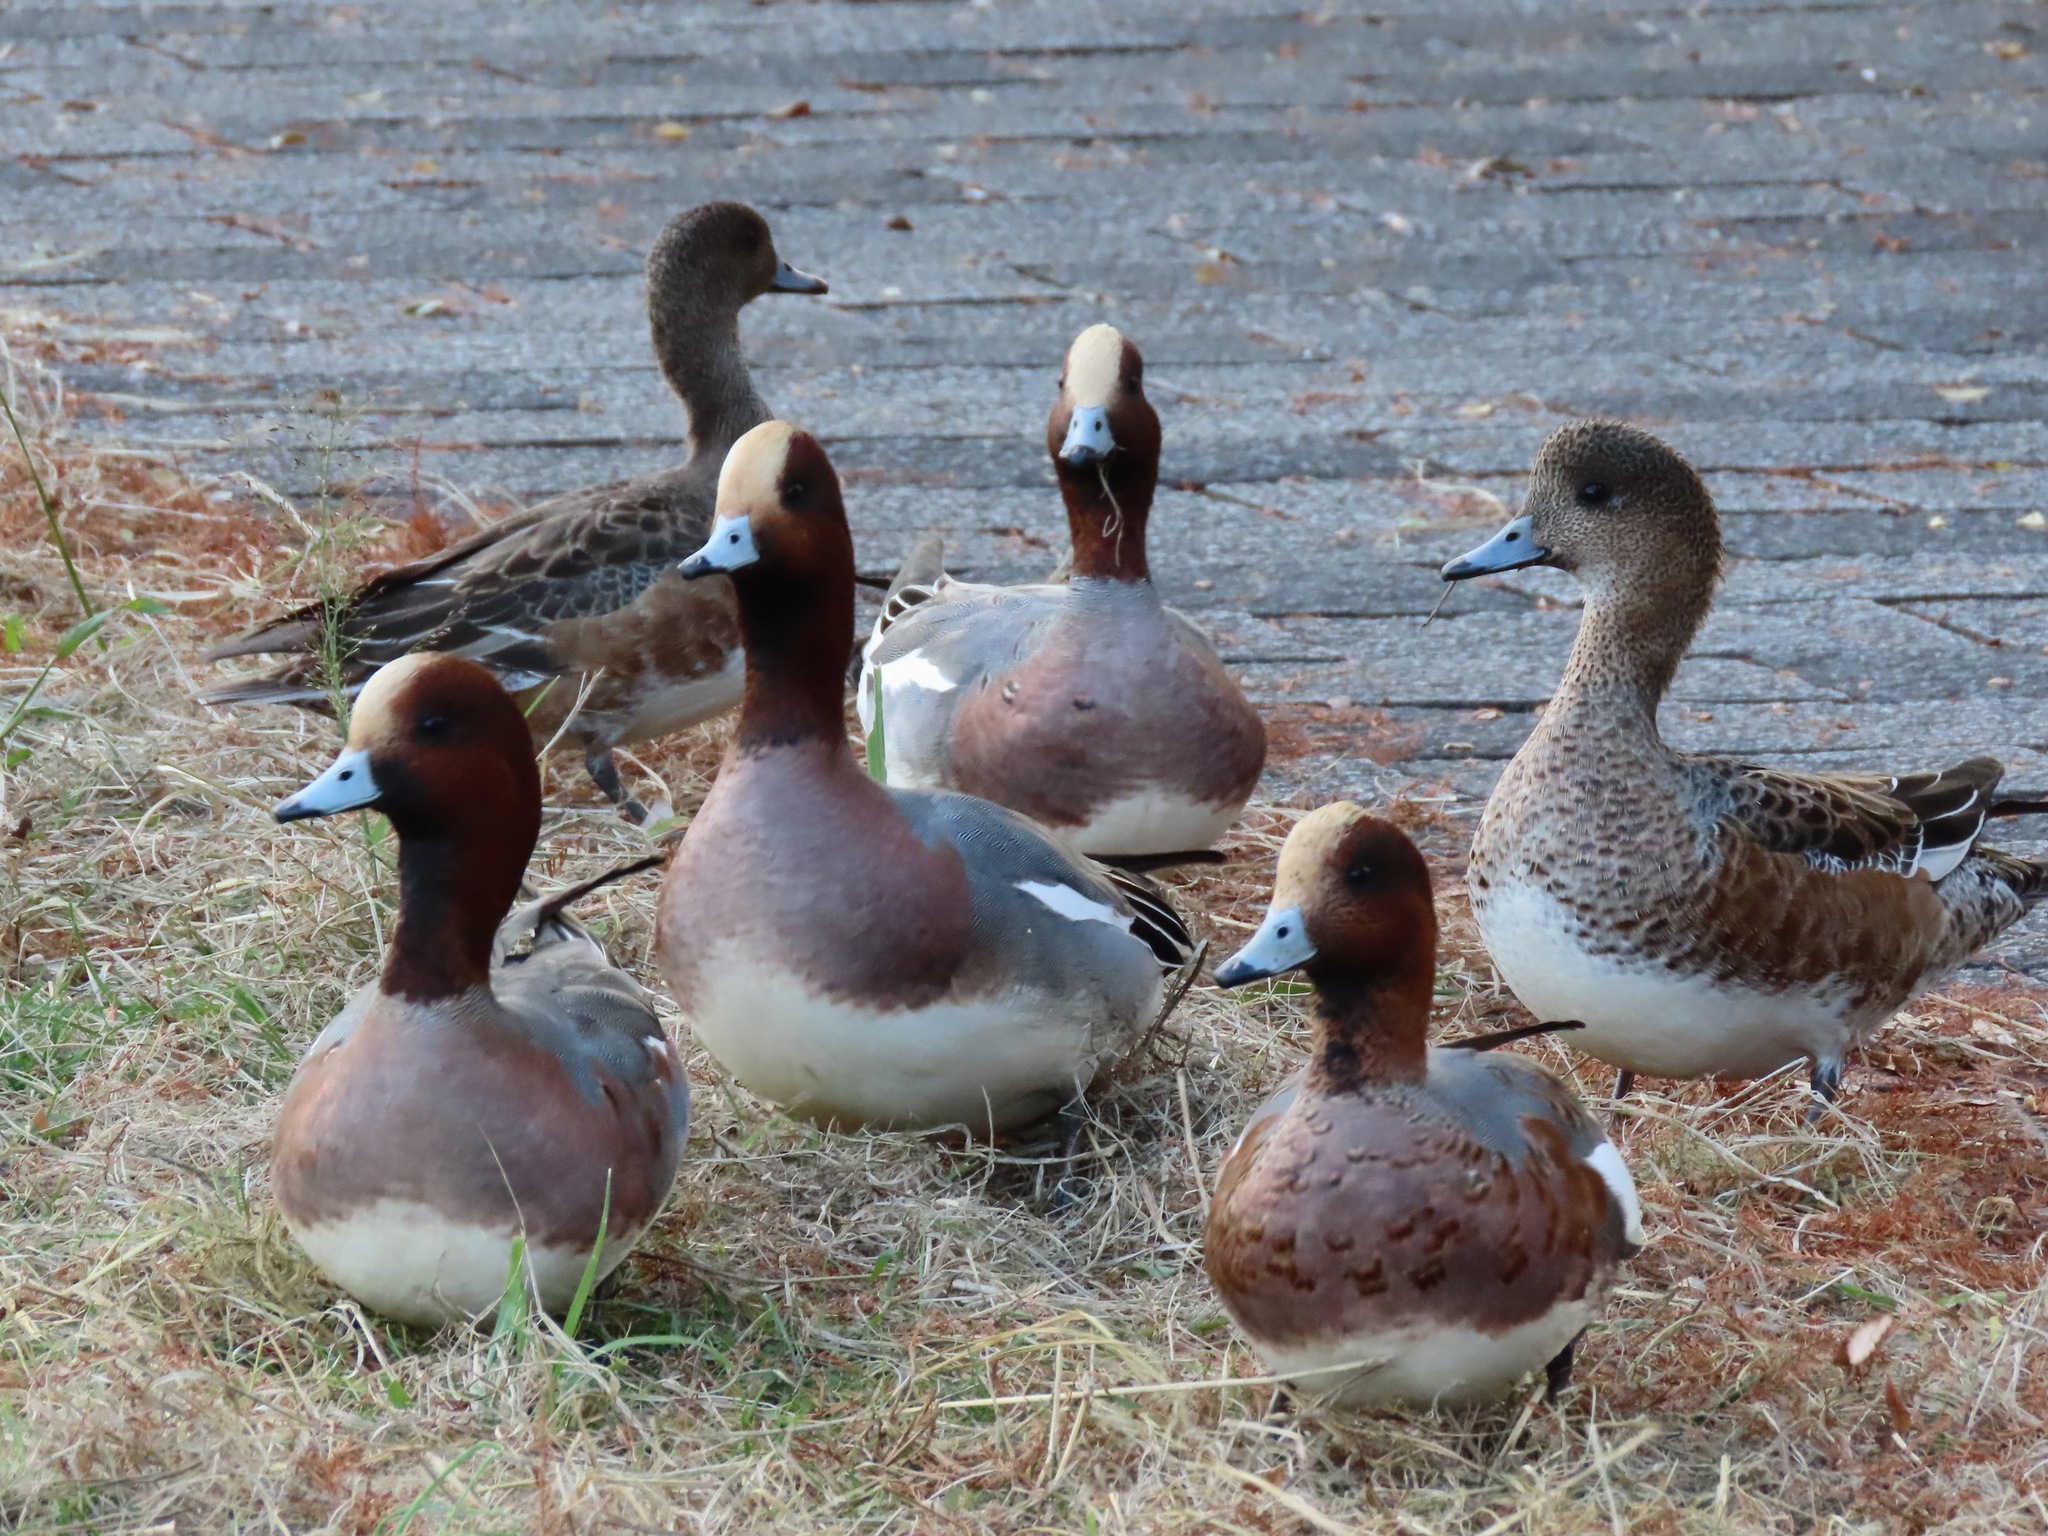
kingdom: Animalia
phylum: Chordata
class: Aves
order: Anseriformes
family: Anatidae
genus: Mareca
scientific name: Mareca penelope
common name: Eurasian wigeon
